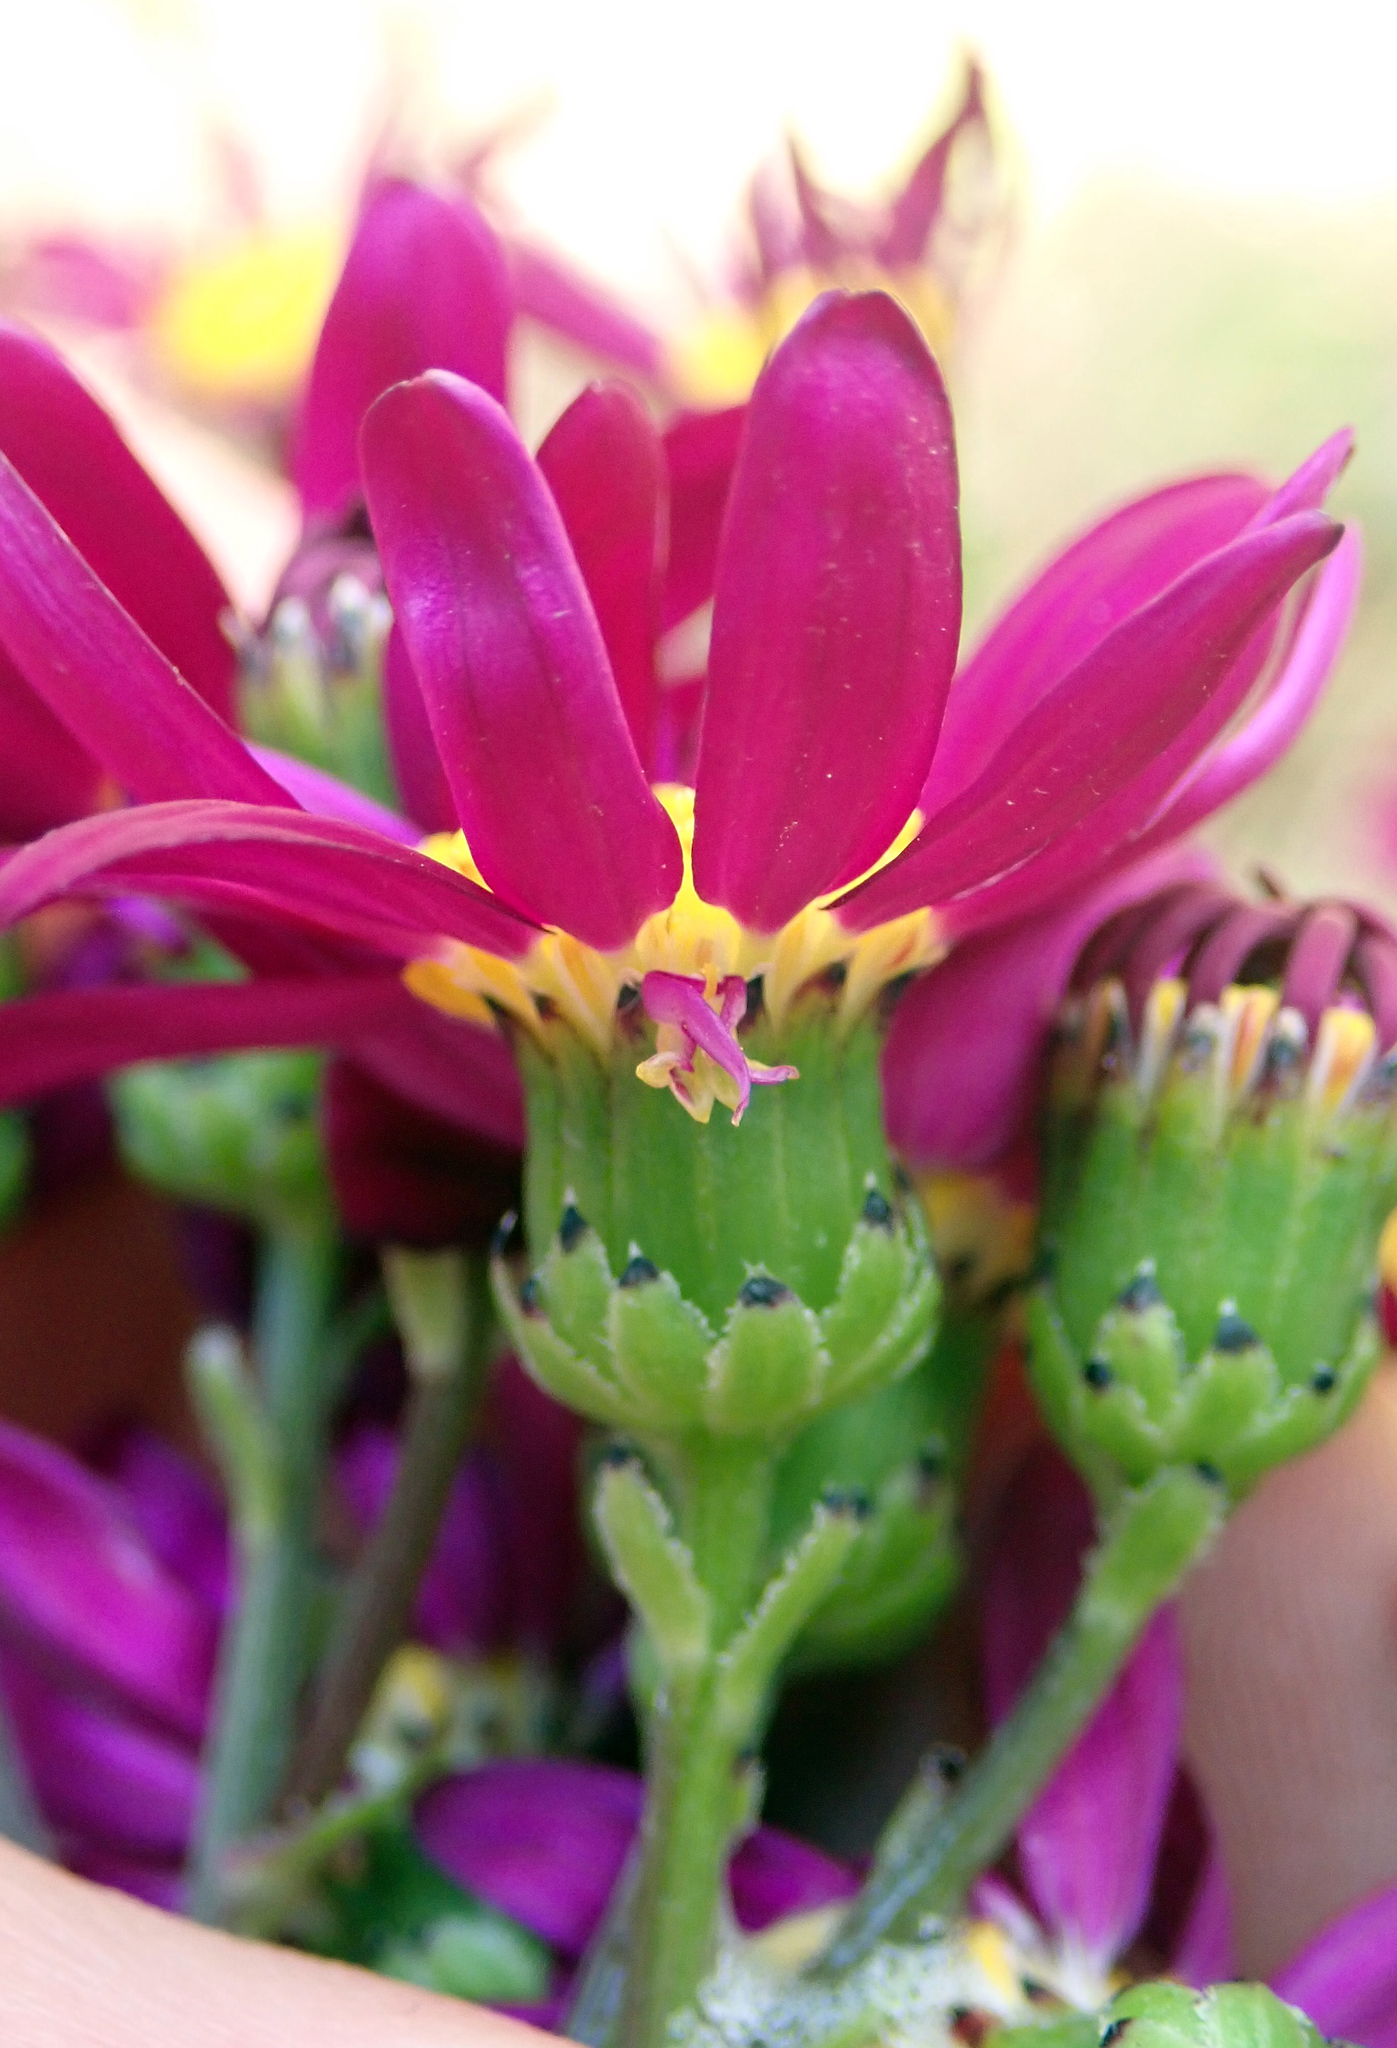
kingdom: Plantae
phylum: Tracheophyta
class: Magnoliopsida
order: Asterales
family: Asteraceae
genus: Senecio
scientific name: Senecio elegans
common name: Purple groundsel
